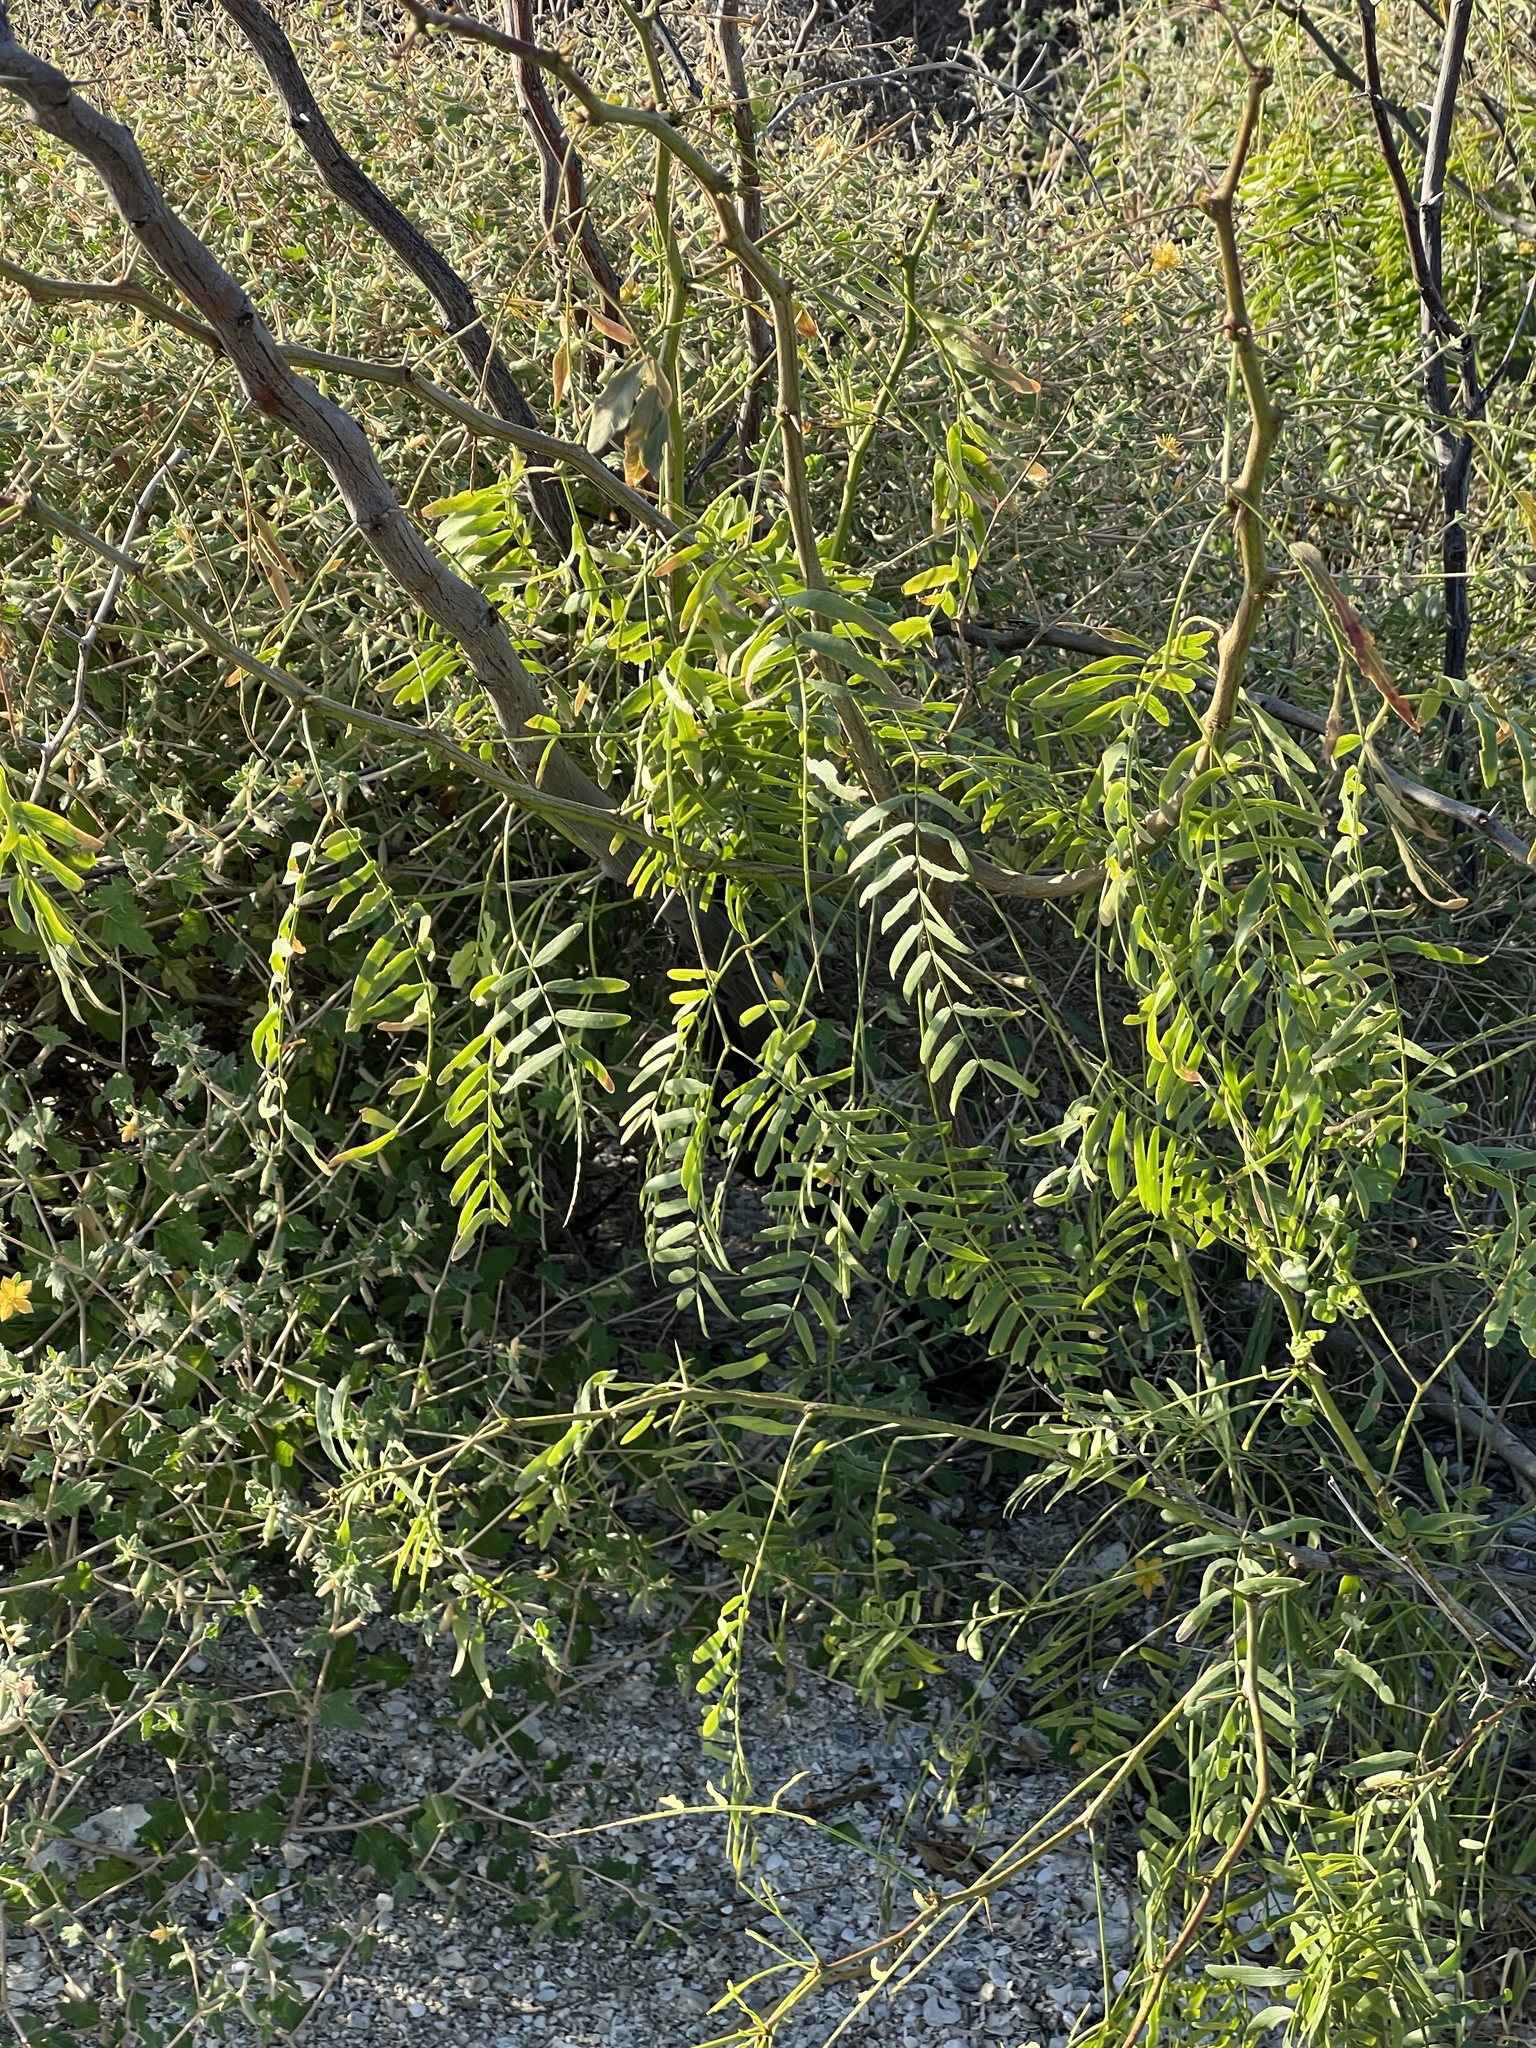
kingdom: Plantae
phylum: Tracheophyta
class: Magnoliopsida
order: Fabales
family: Fabaceae
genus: Prosopis
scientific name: Prosopis glandulosa
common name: Honey mesquite
